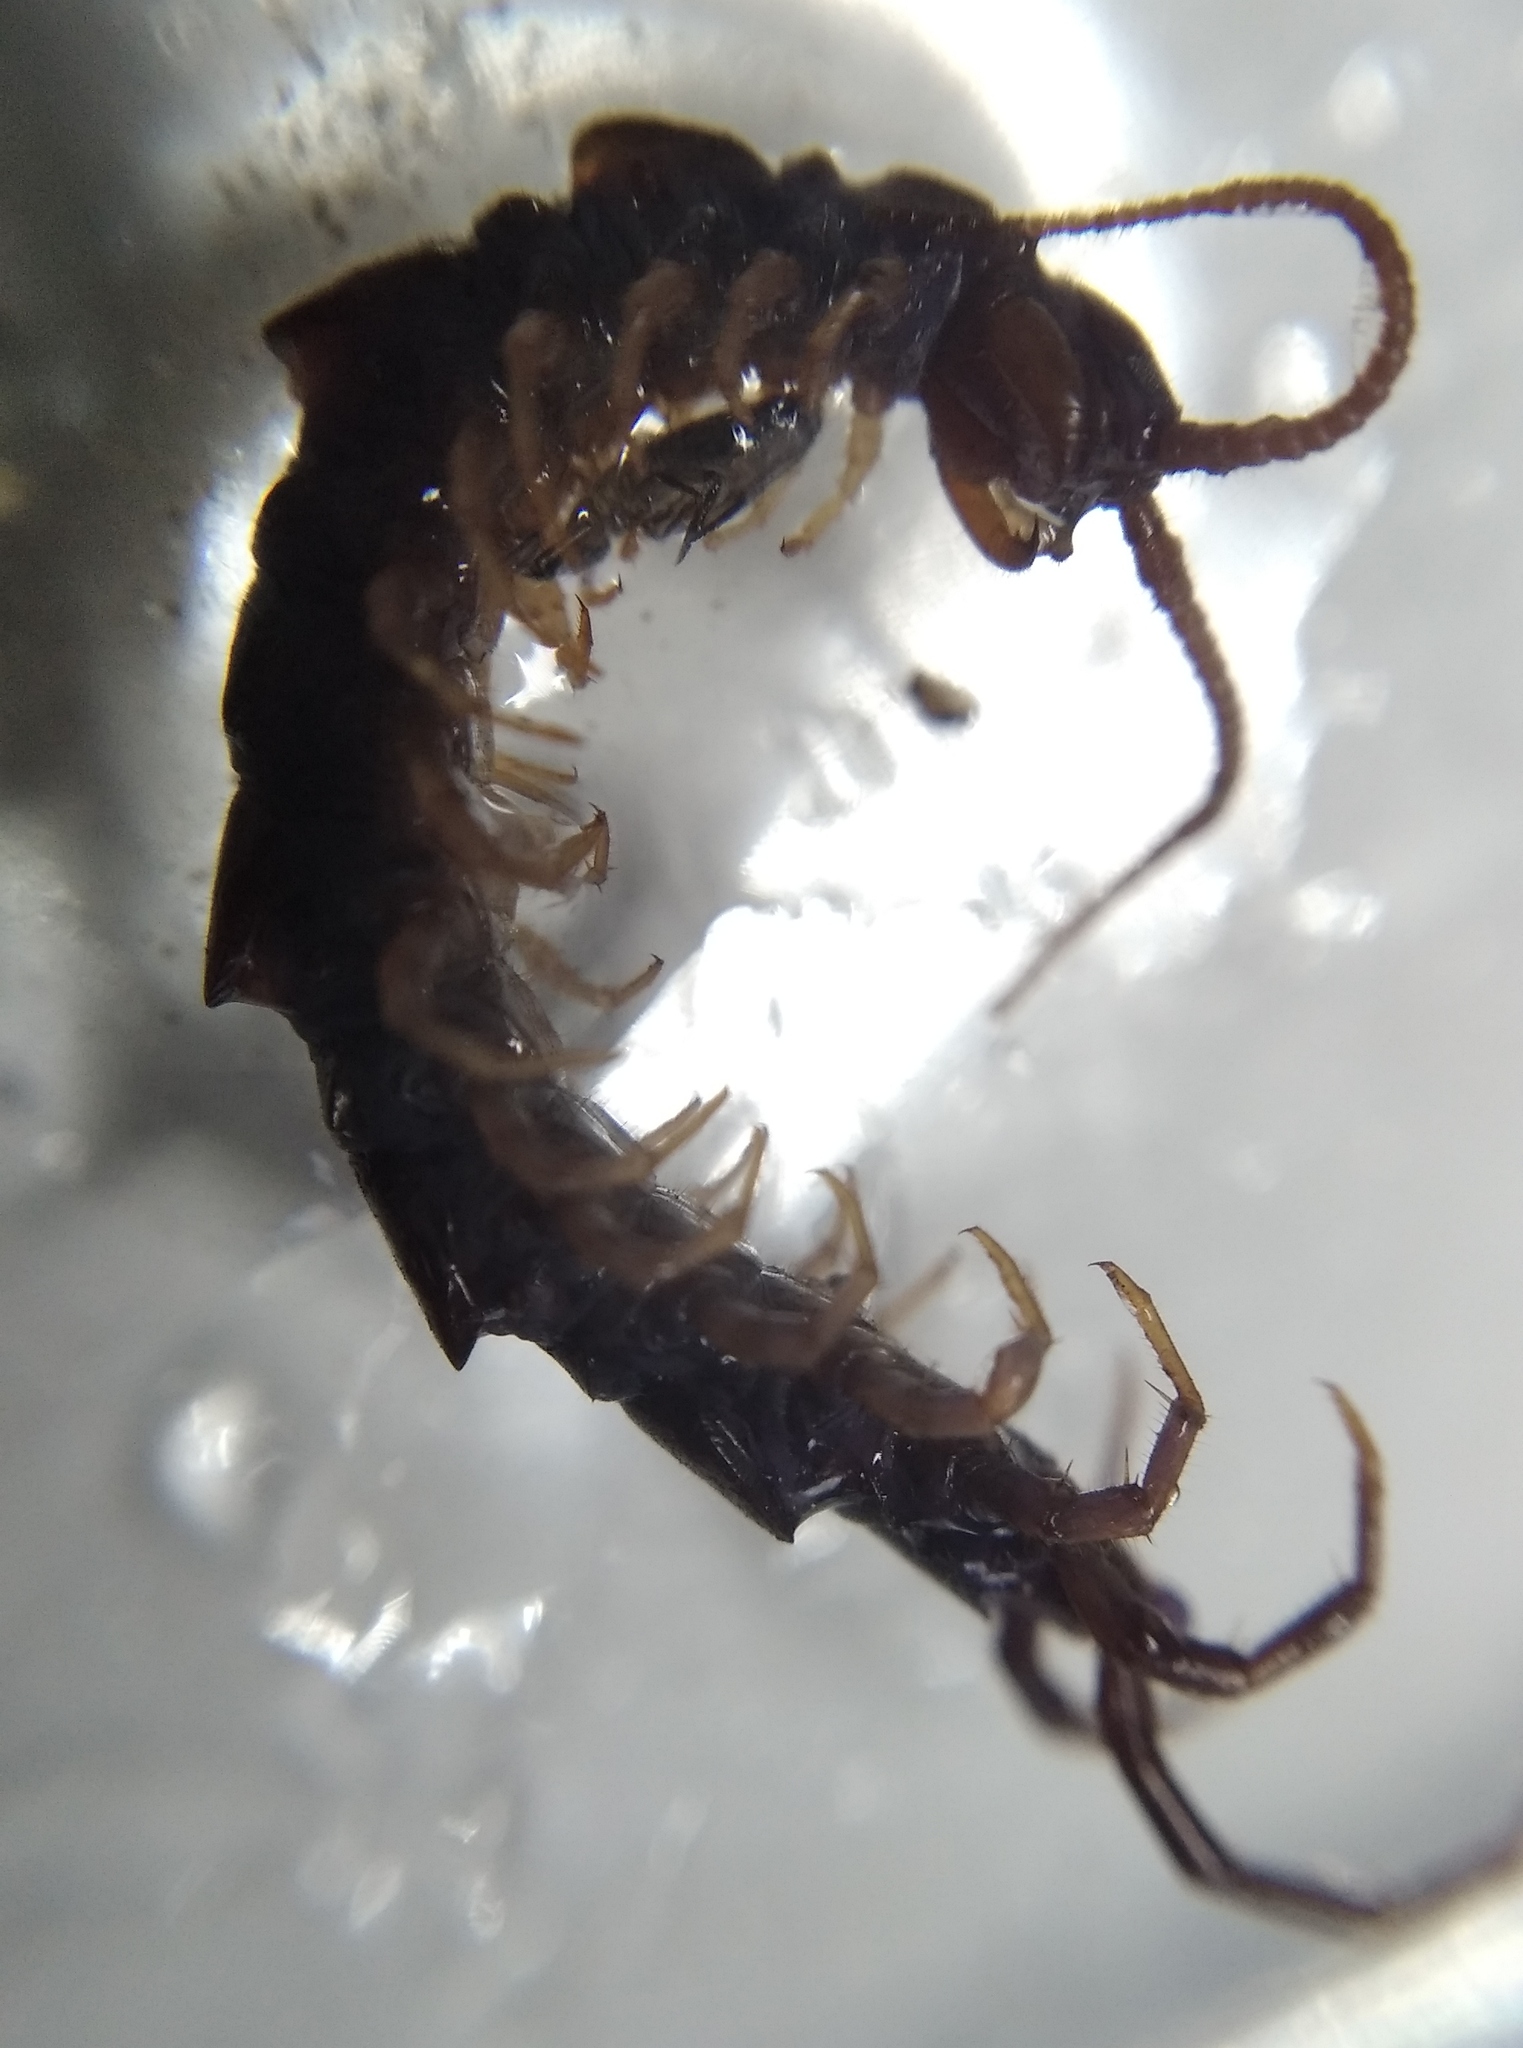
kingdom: Animalia
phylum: Arthropoda
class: Chilopoda
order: Lithobiomorpha
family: Lithobiidae
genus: Lithobius
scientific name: Lithobius forficatus
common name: Centipede
